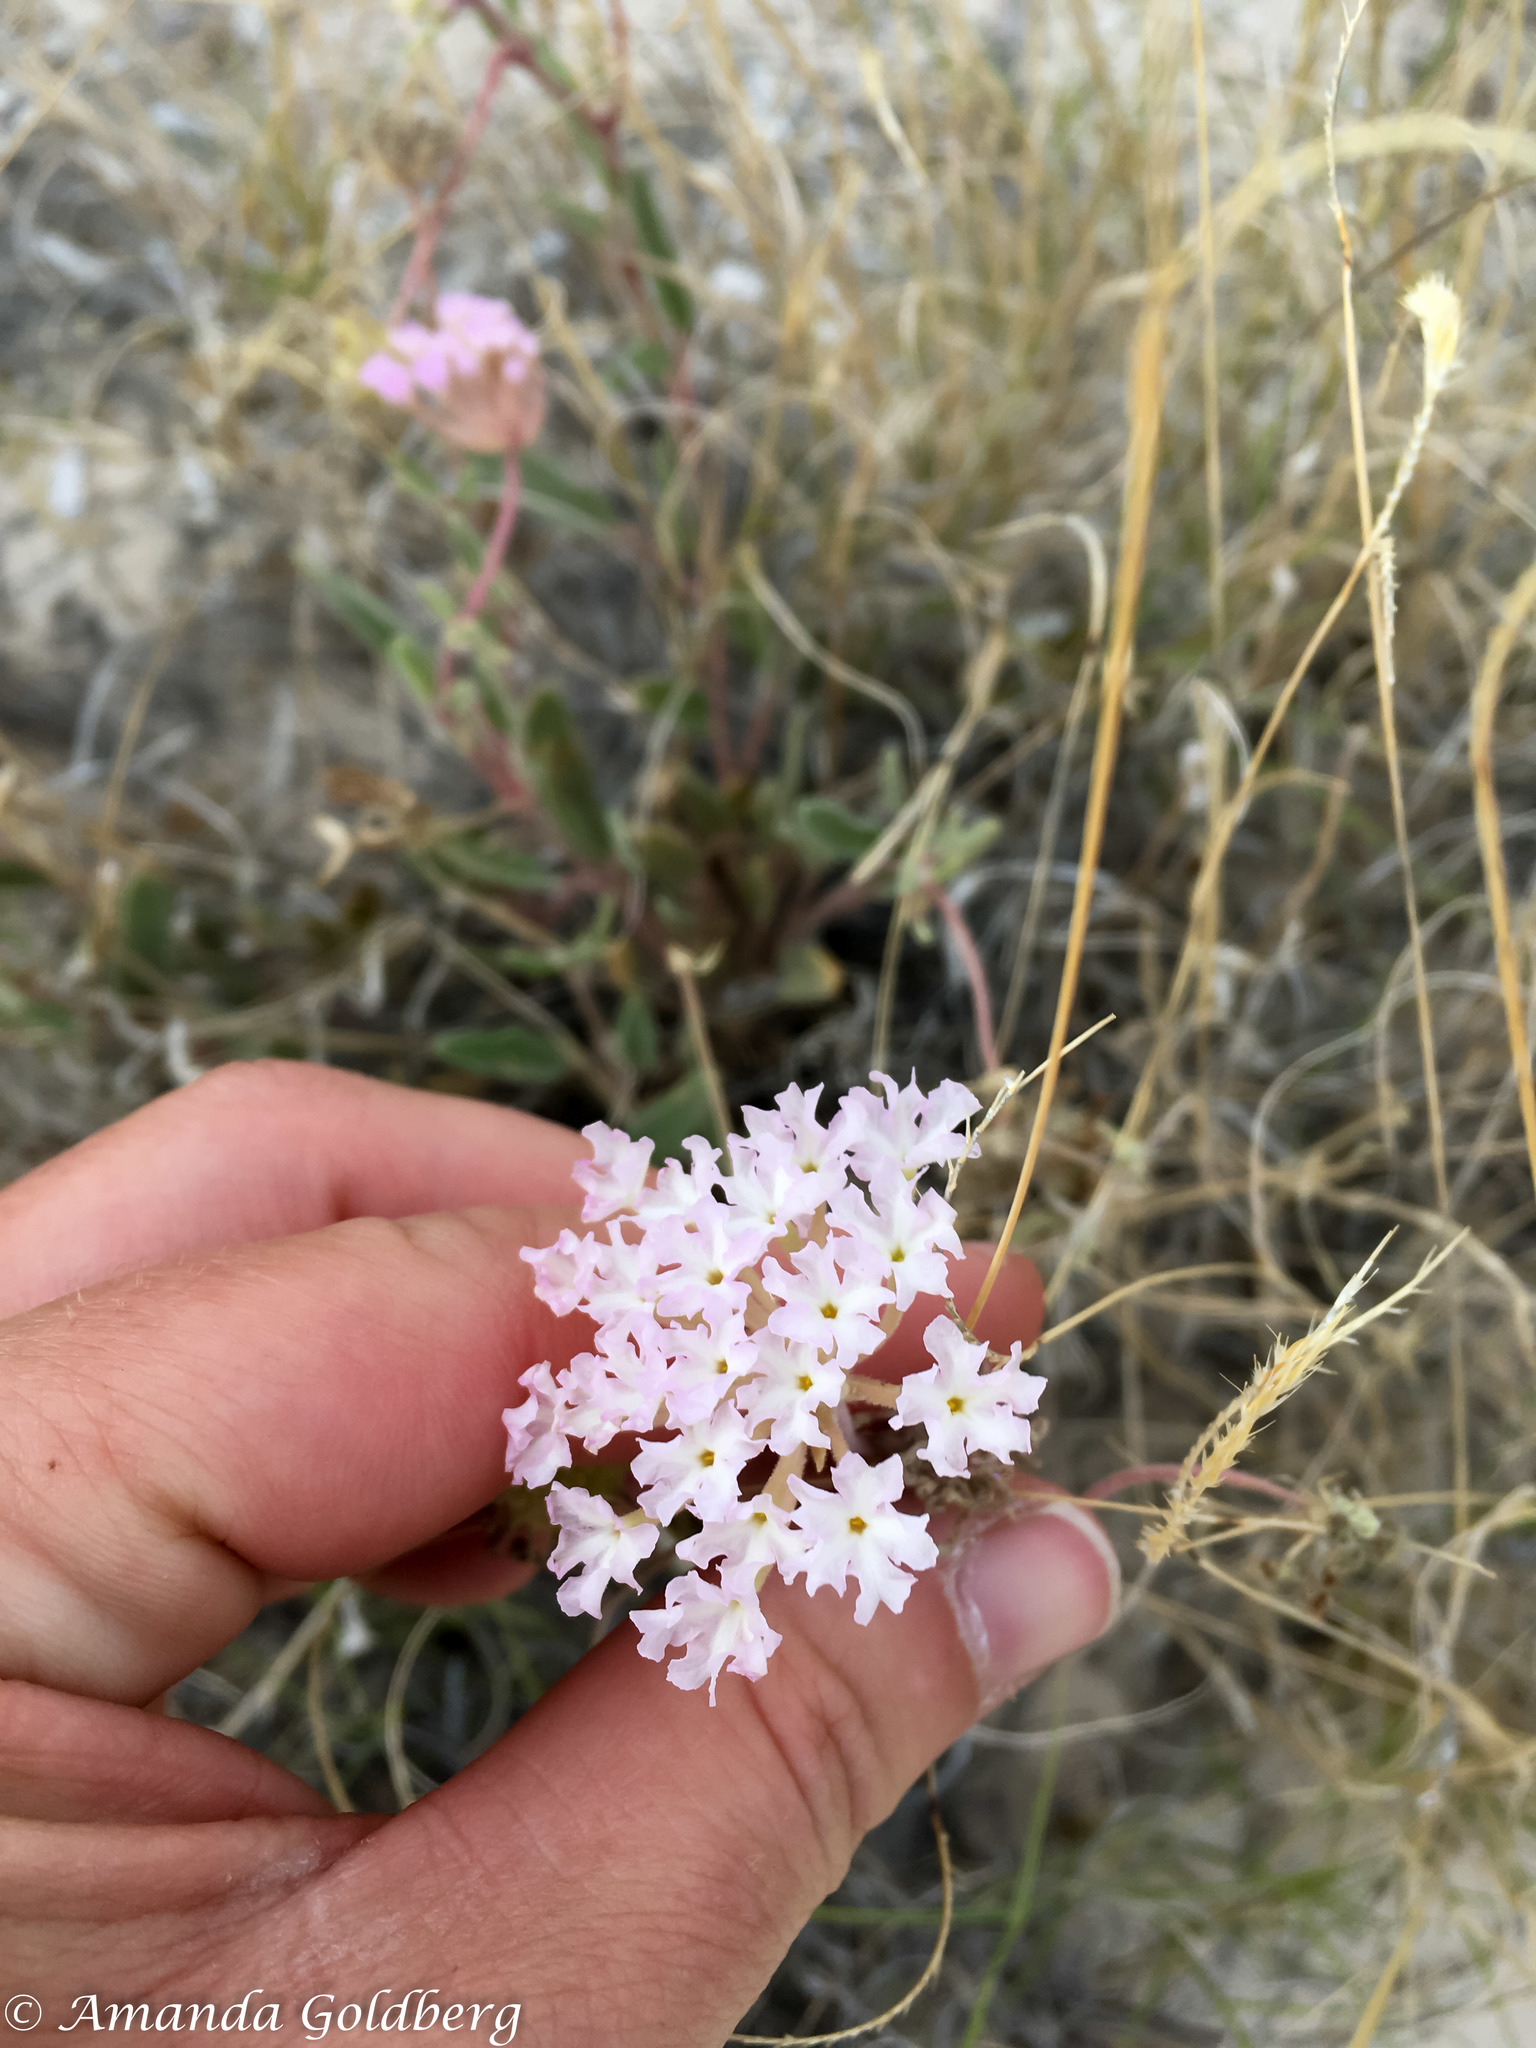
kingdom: Plantae
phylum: Tracheophyta
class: Magnoliopsida
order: Caryophyllales
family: Nyctaginaceae
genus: Abronia
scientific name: Abronia angustifolia
